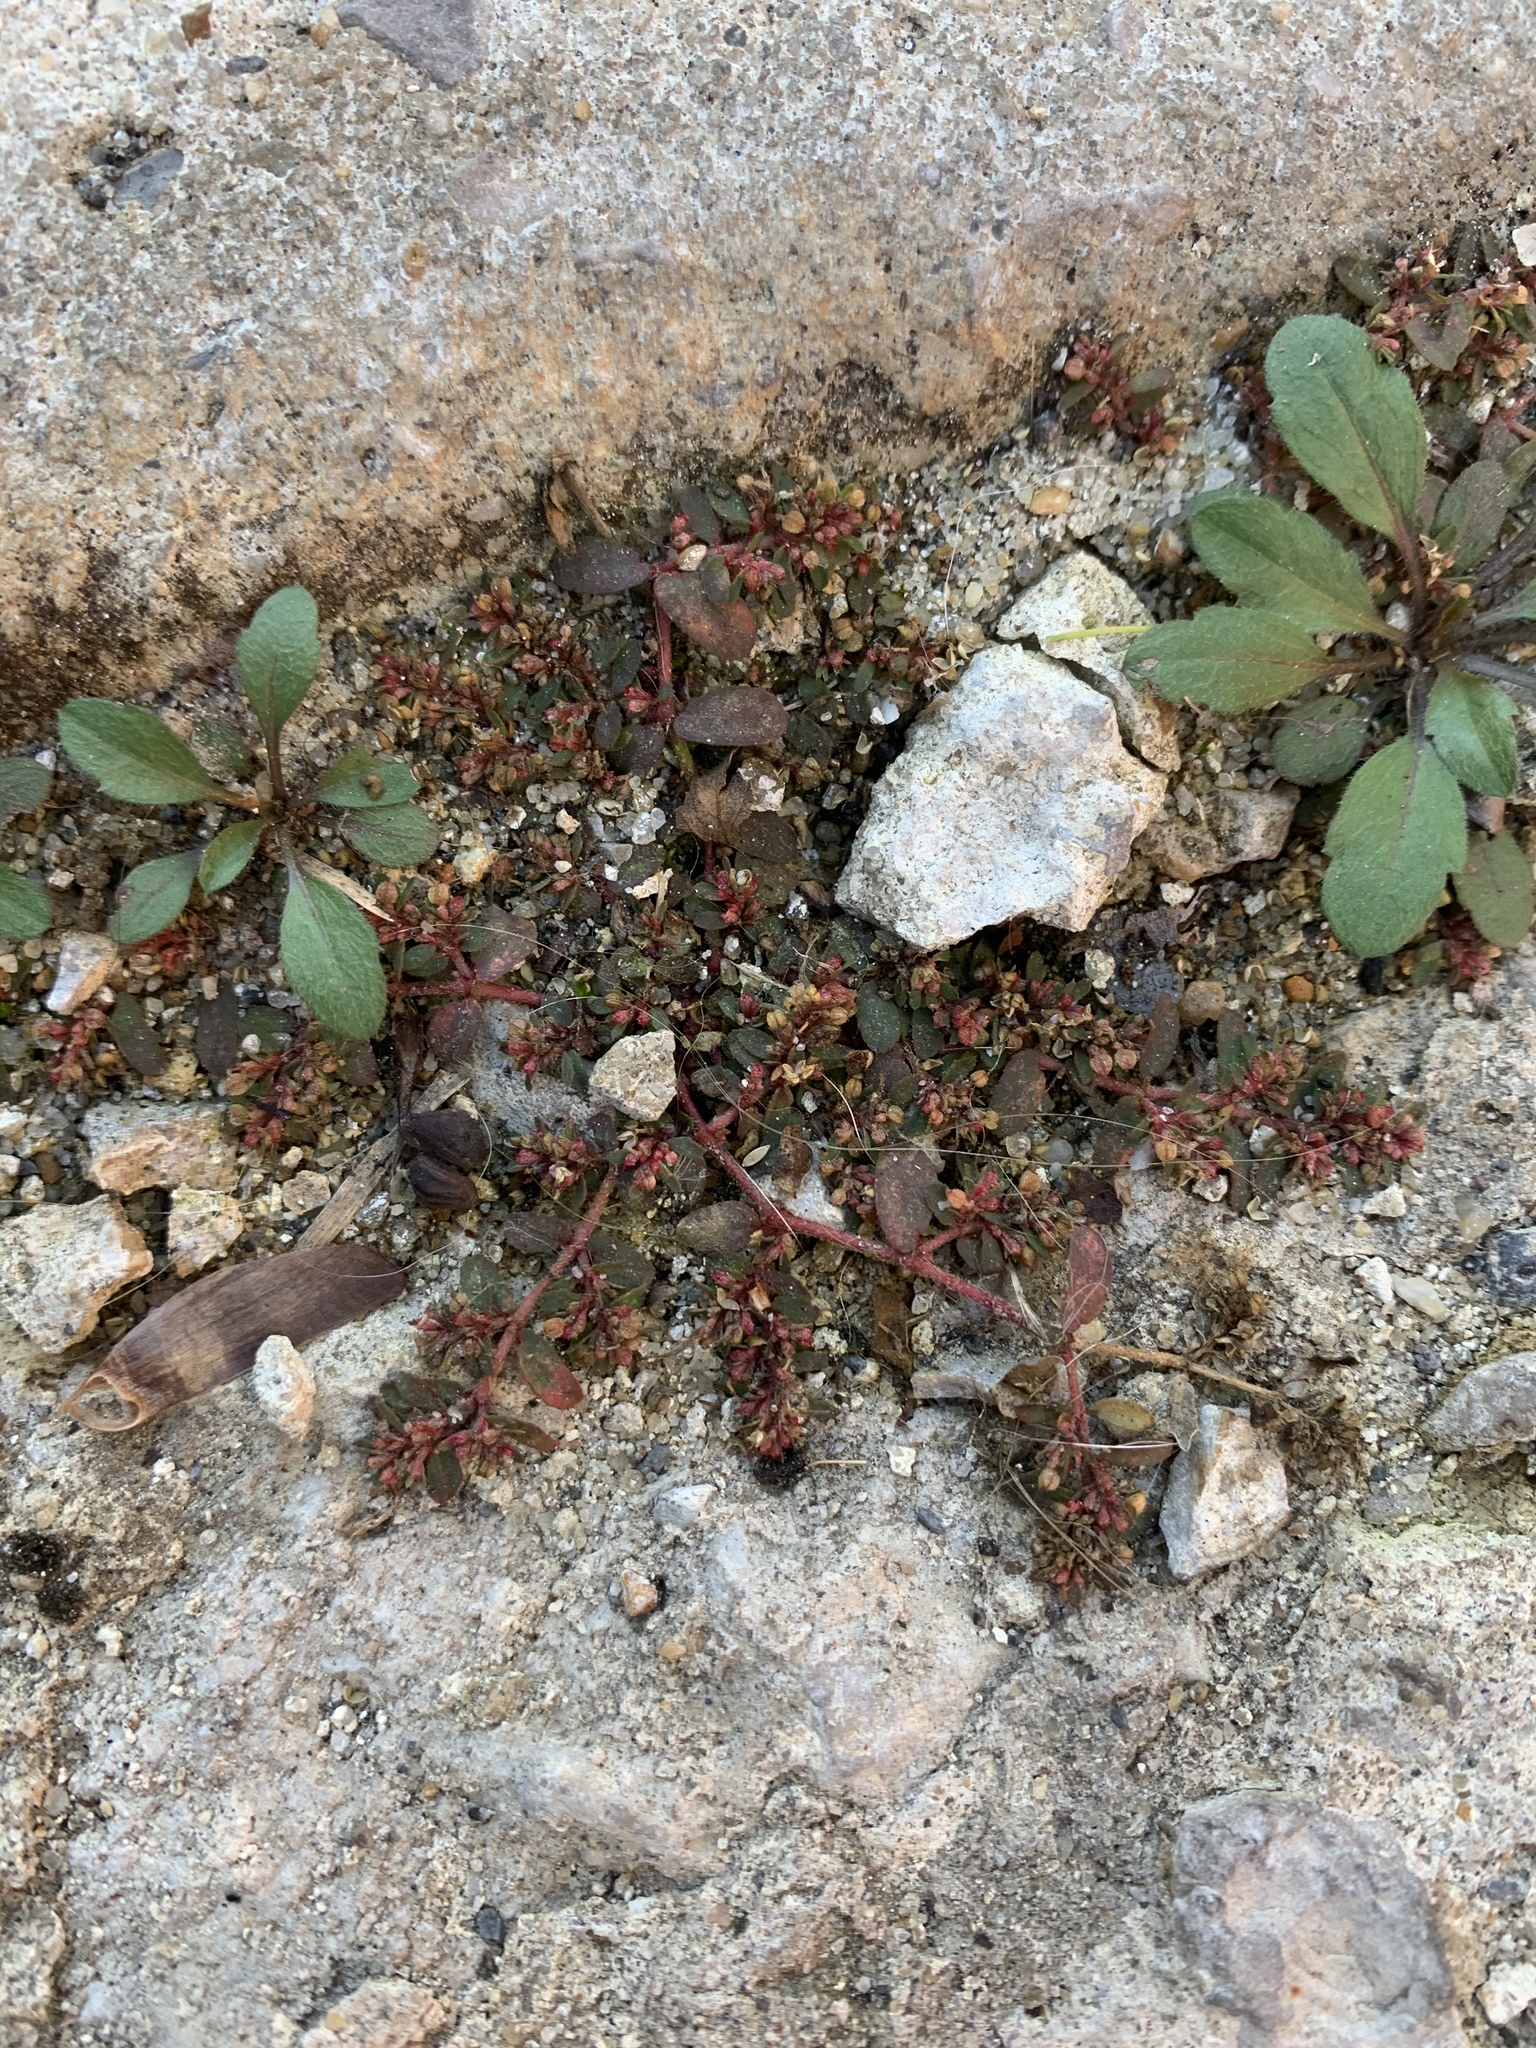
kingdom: Plantae
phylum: Tracheophyta
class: Magnoliopsida
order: Malpighiales
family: Euphorbiaceae
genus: Euphorbia
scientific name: Euphorbia maculata
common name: Spotted spurge
